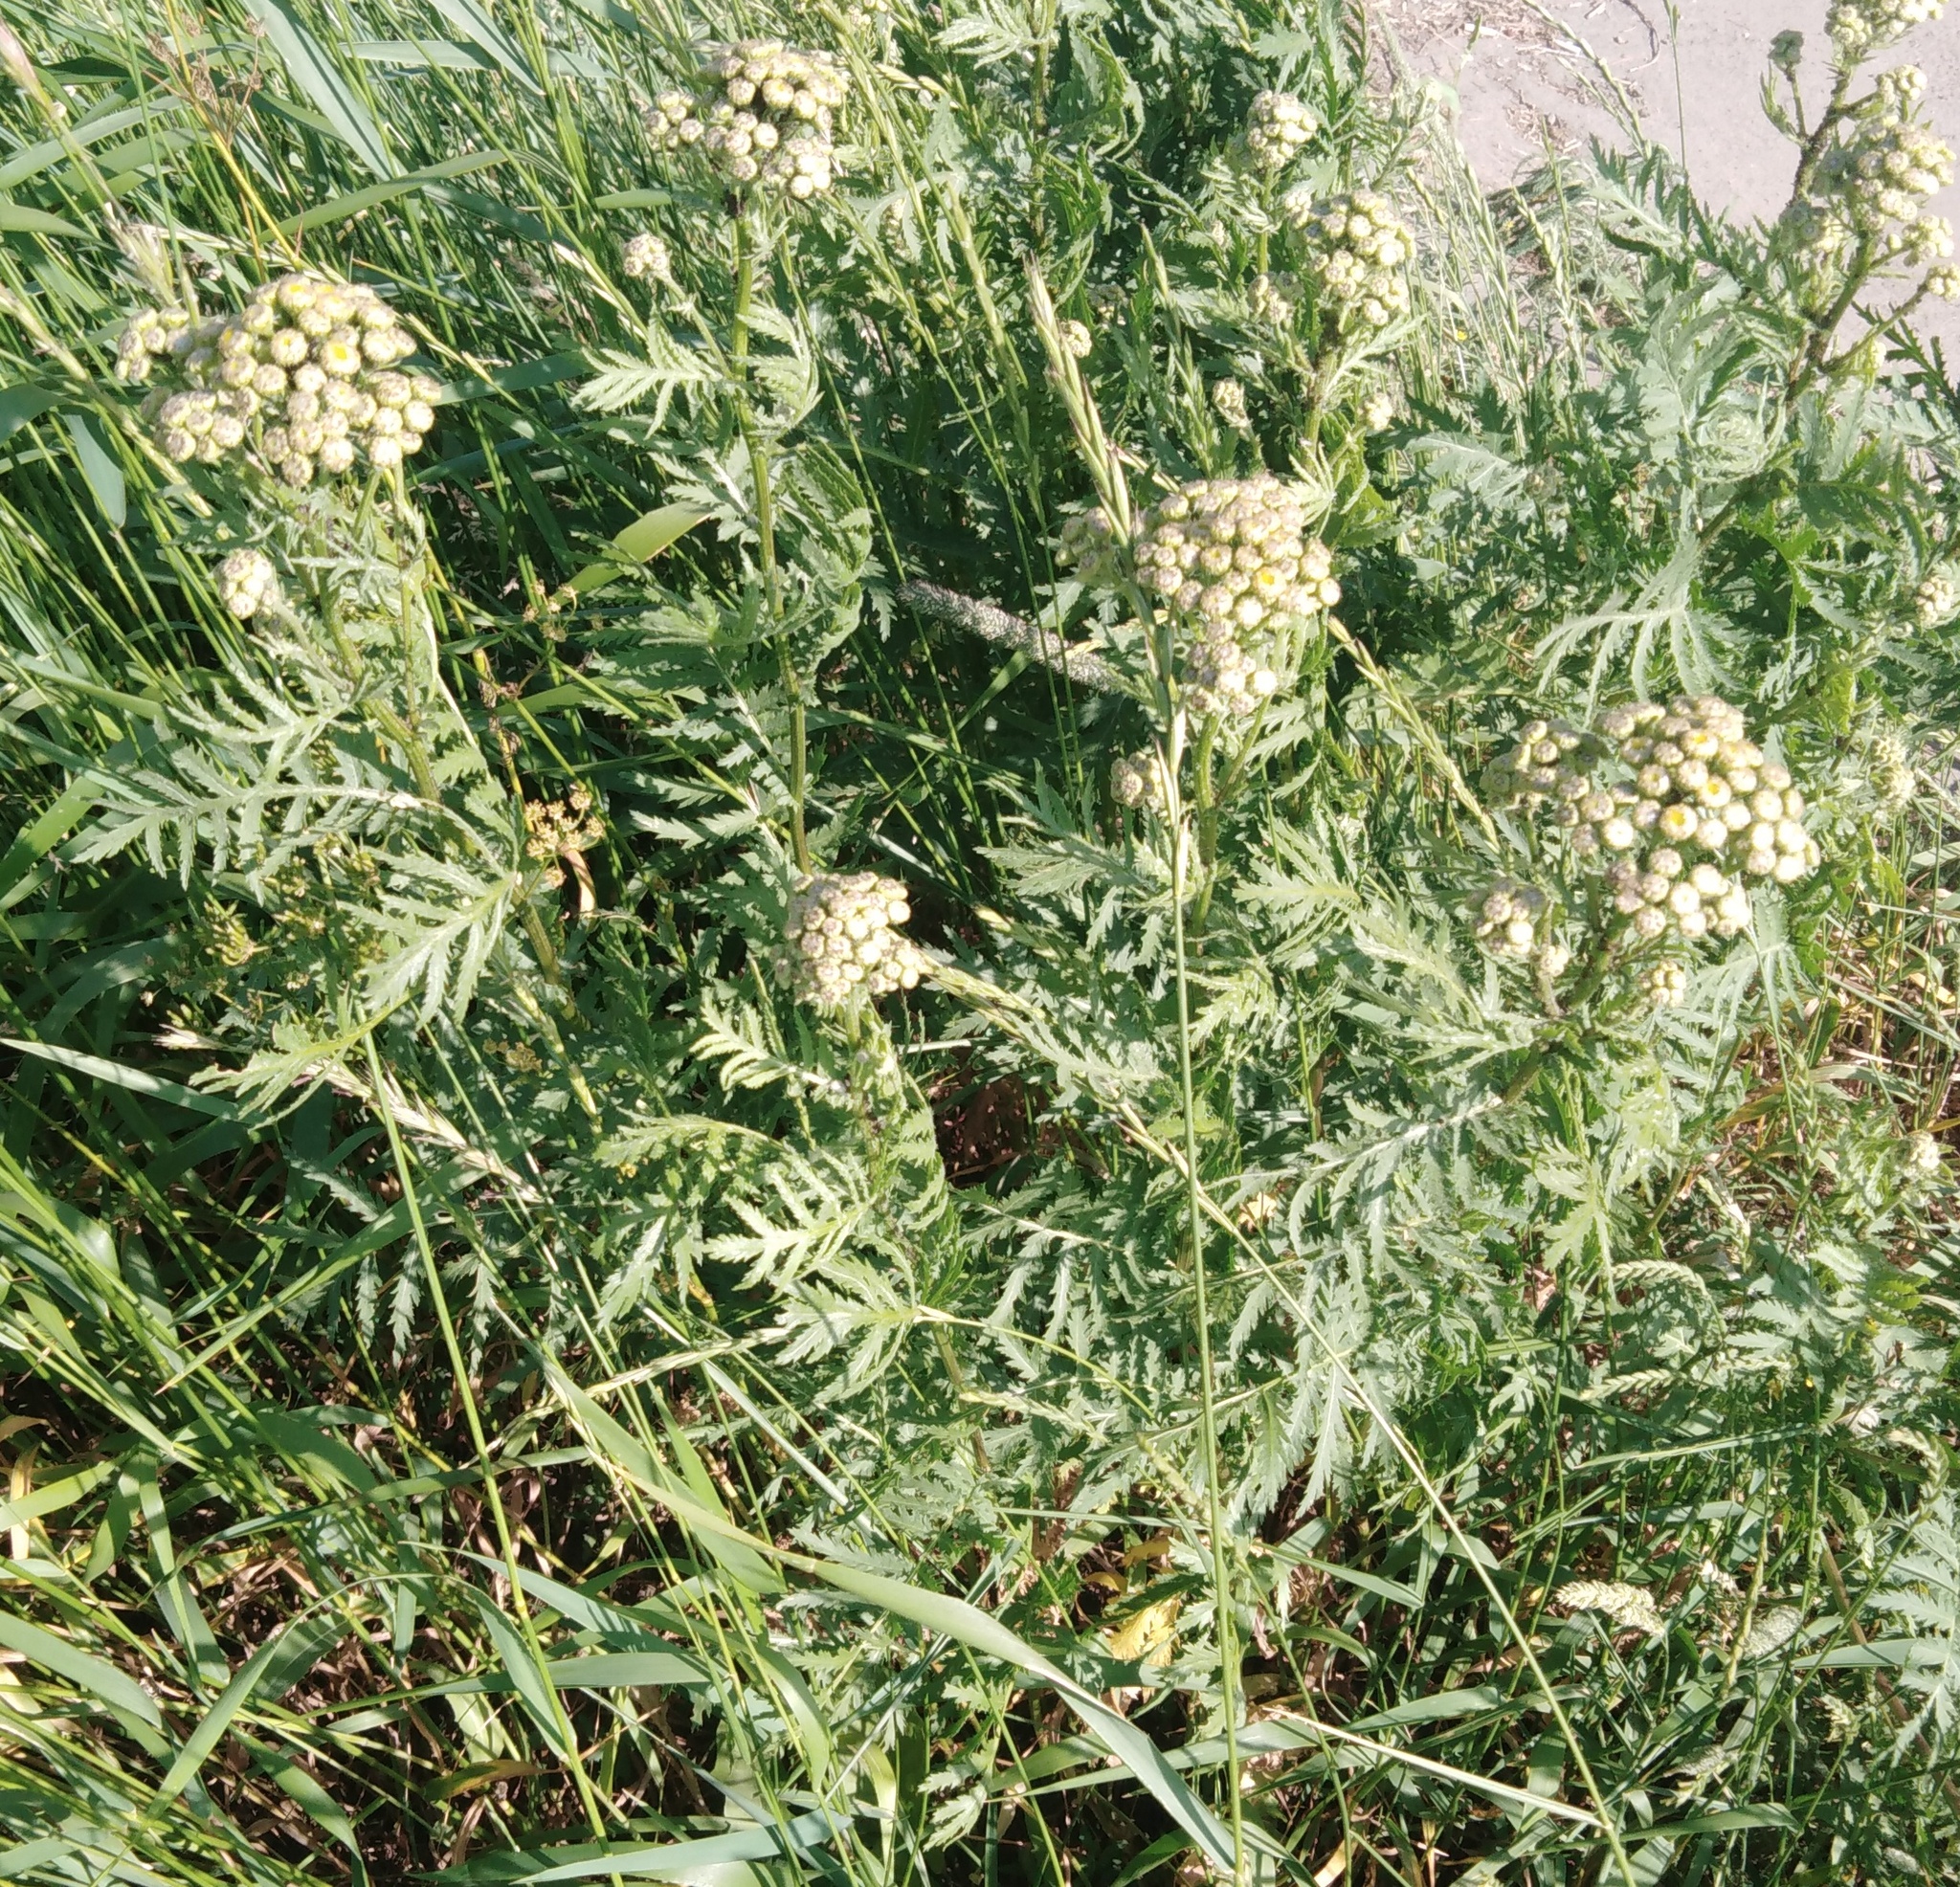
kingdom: Plantae
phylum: Tracheophyta
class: Magnoliopsida
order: Asterales
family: Asteraceae
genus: Tanacetum
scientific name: Tanacetum vulgare
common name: Common tansy
